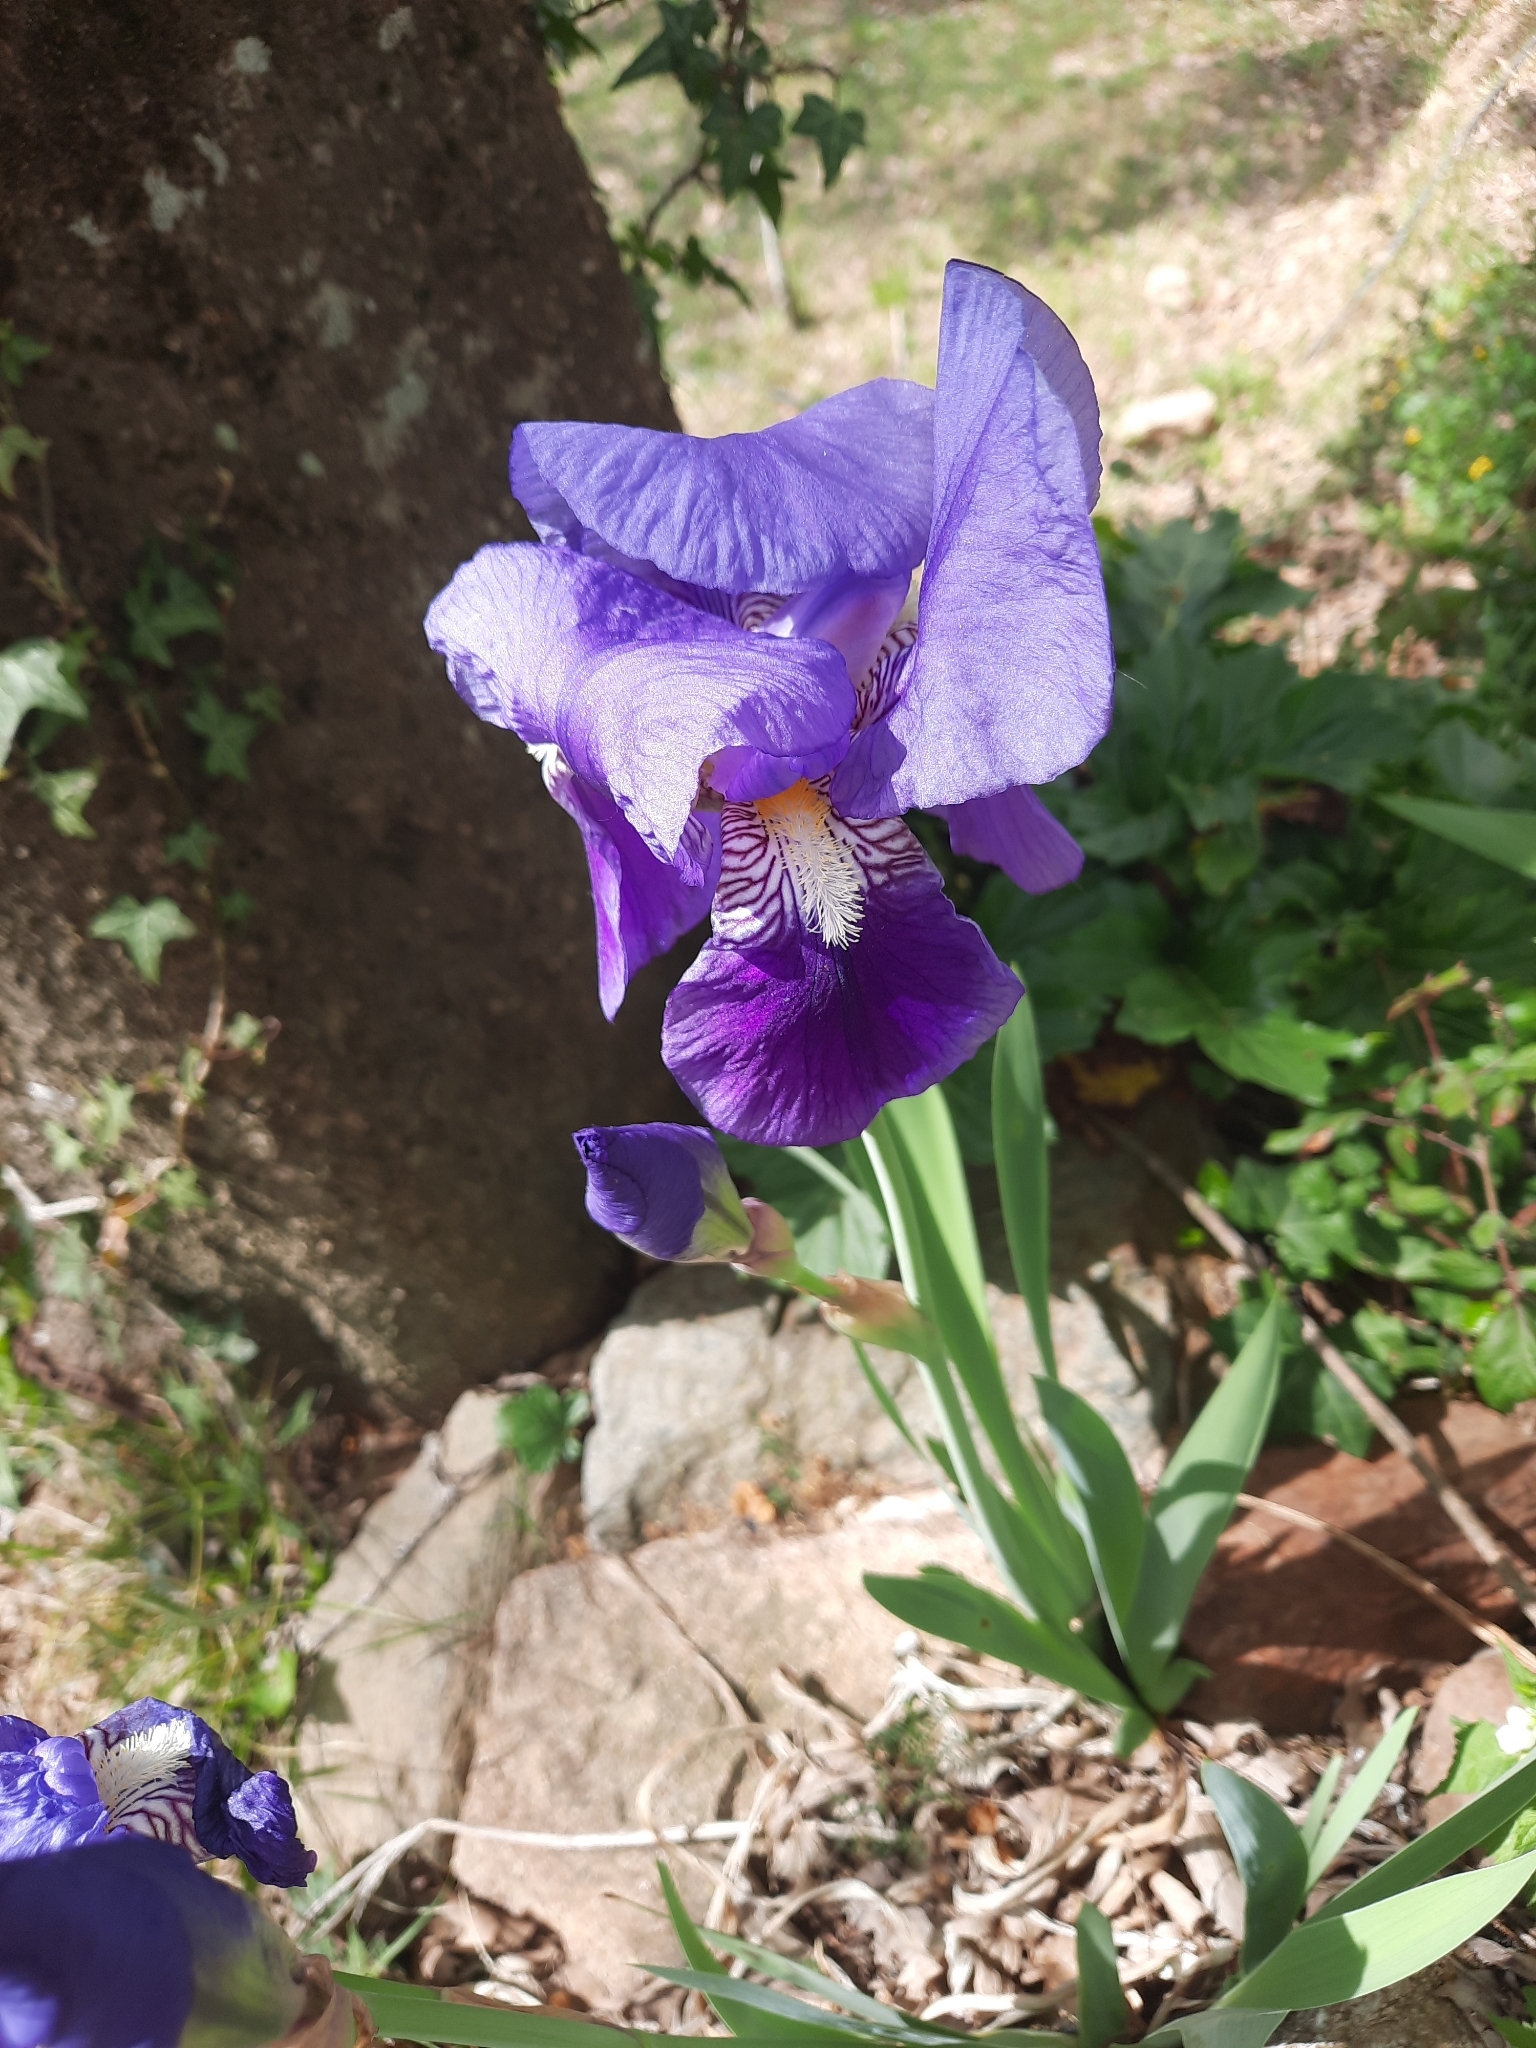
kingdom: Plantae
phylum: Tracheophyta
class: Liliopsida
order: Asparagales
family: Iridaceae
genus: Iris
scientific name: Iris germanica
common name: German iris
